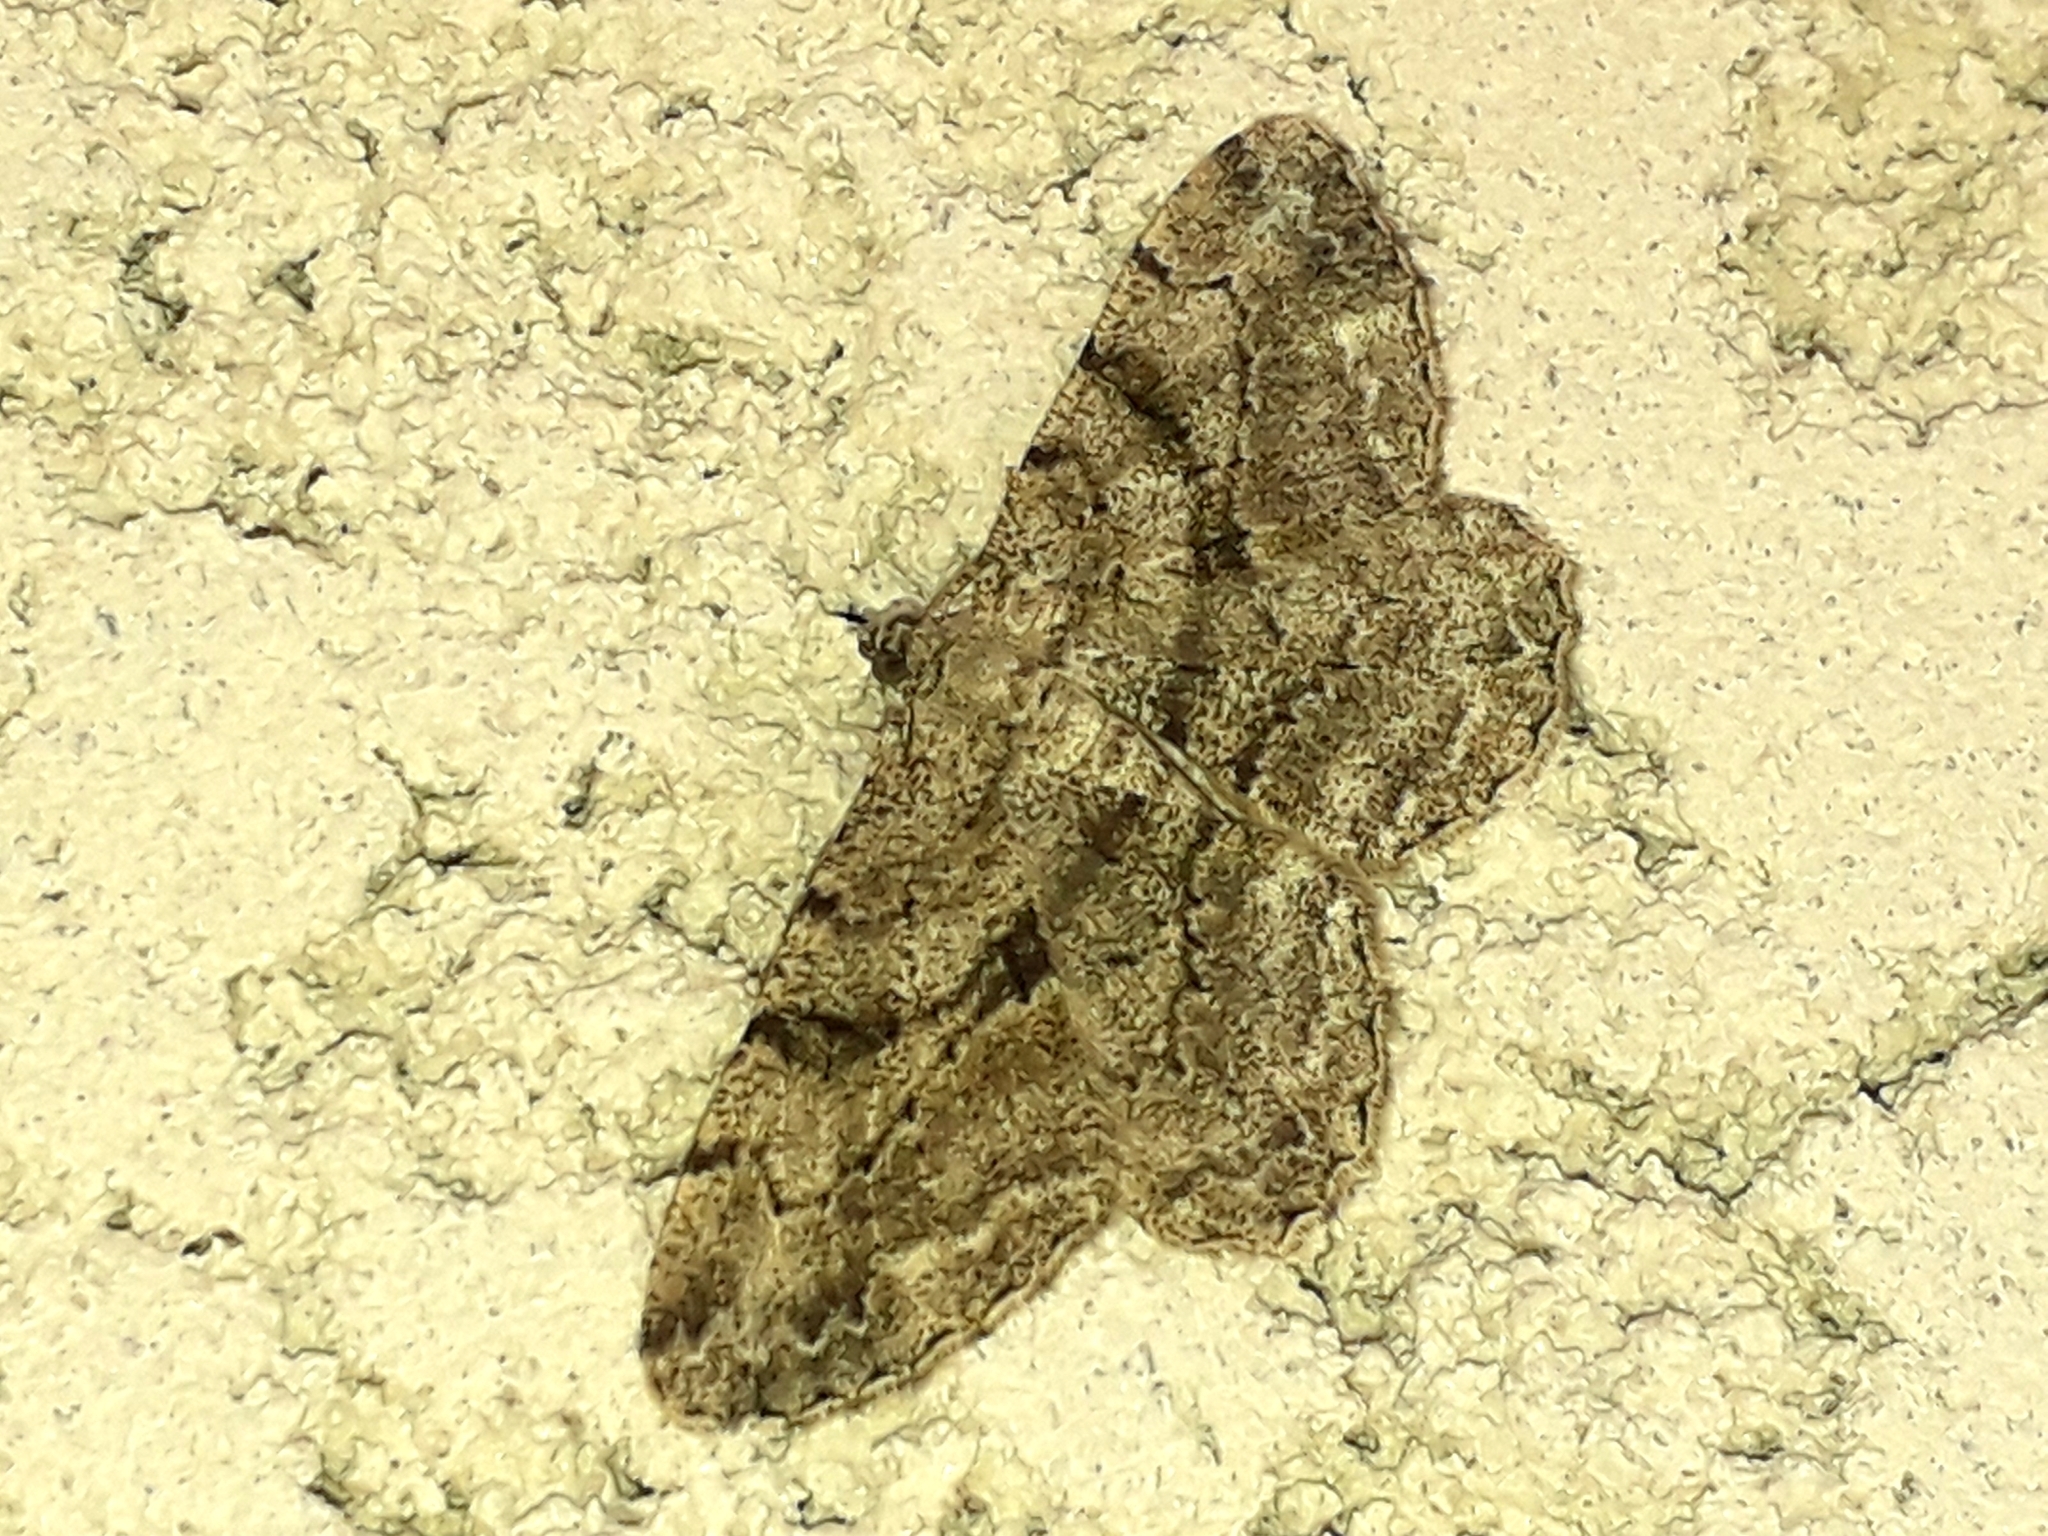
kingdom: Animalia
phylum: Arthropoda
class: Insecta
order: Lepidoptera
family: Geometridae
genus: Peribatodes
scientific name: Peribatodes rhomboidaria
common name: Willow beauty
